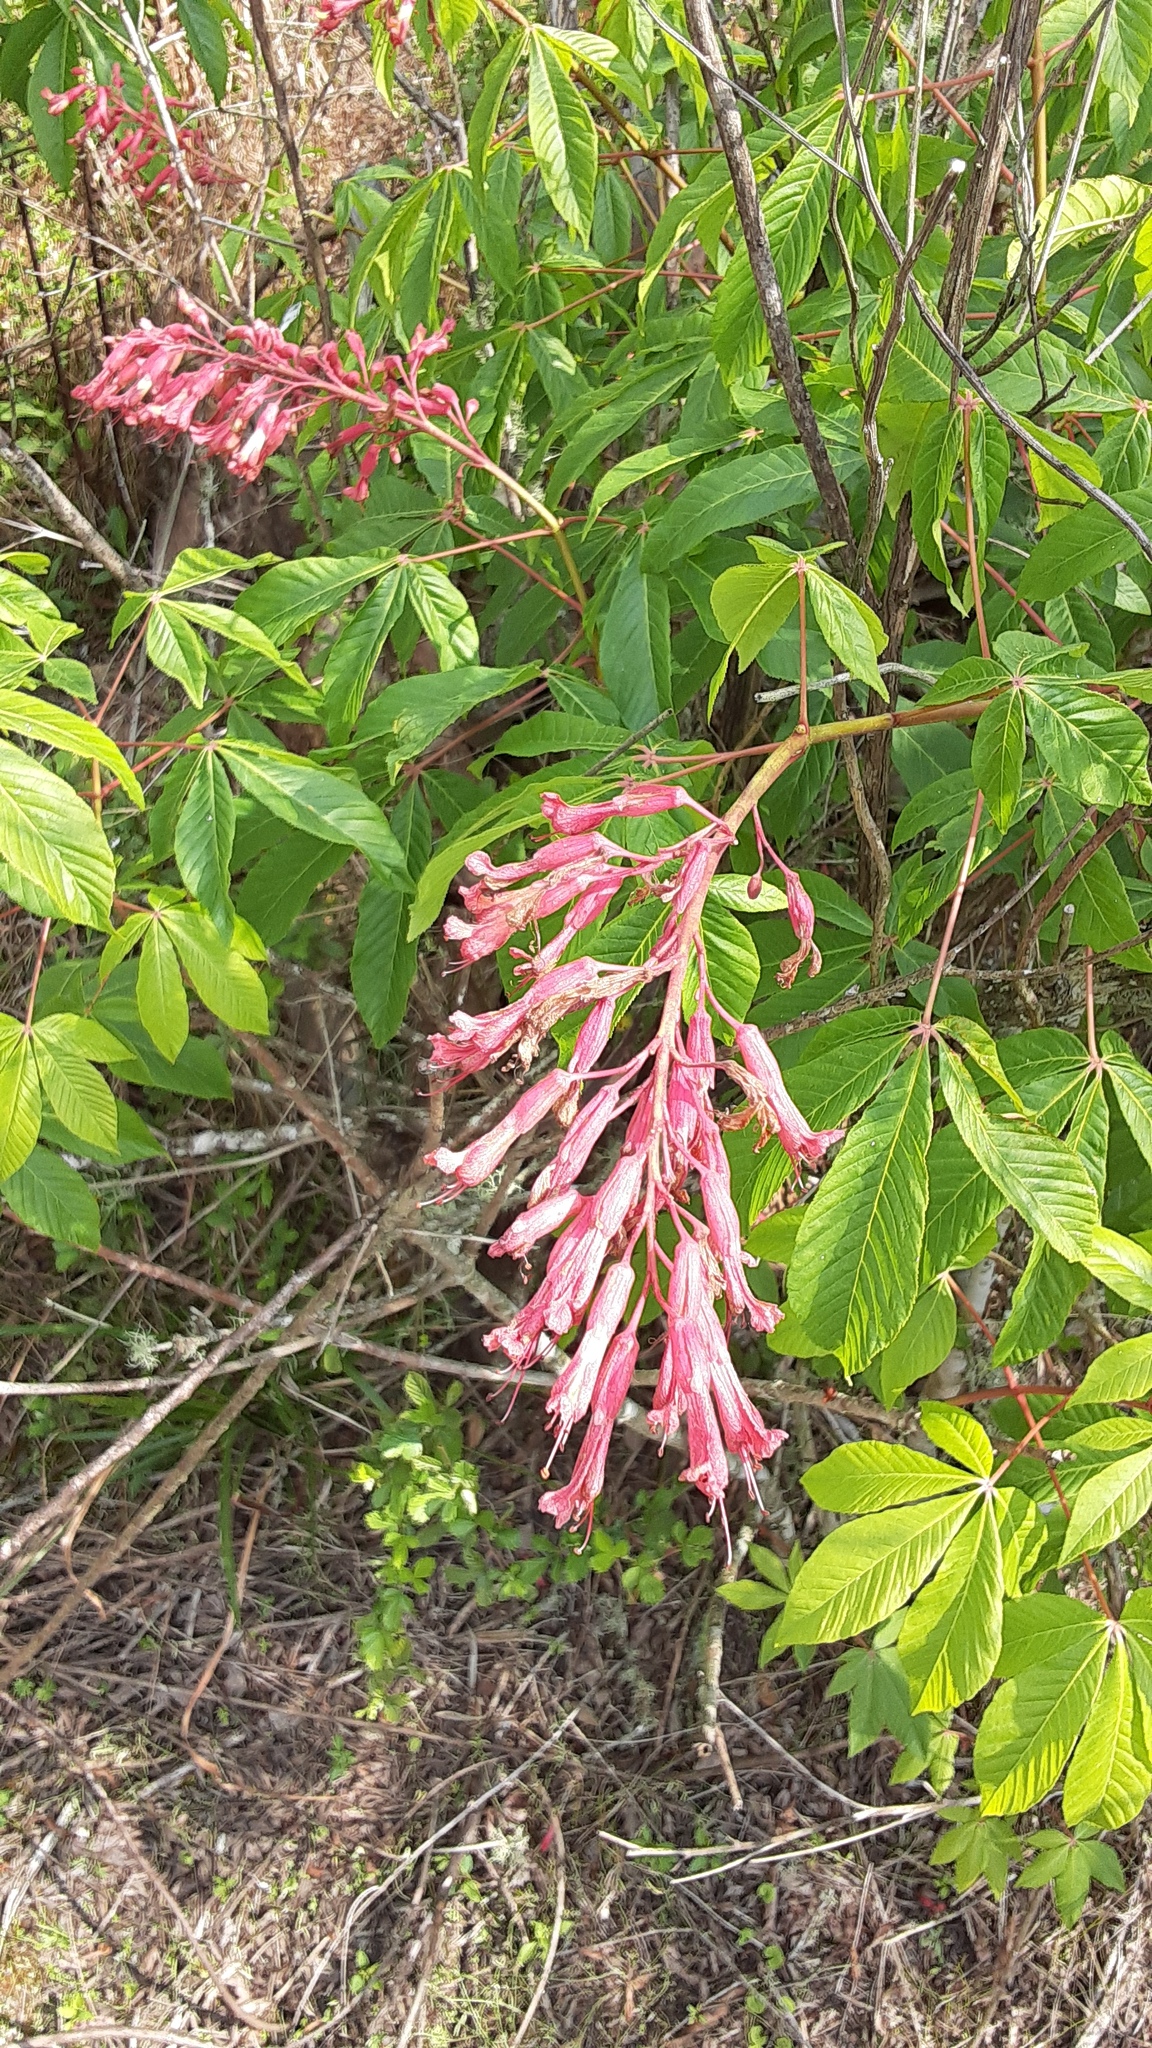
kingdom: Plantae
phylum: Tracheophyta
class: Magnoliopsida
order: Sapindales
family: Sapindaceae
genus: Aesculus
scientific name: Aesculus pavia
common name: Red buckeye
